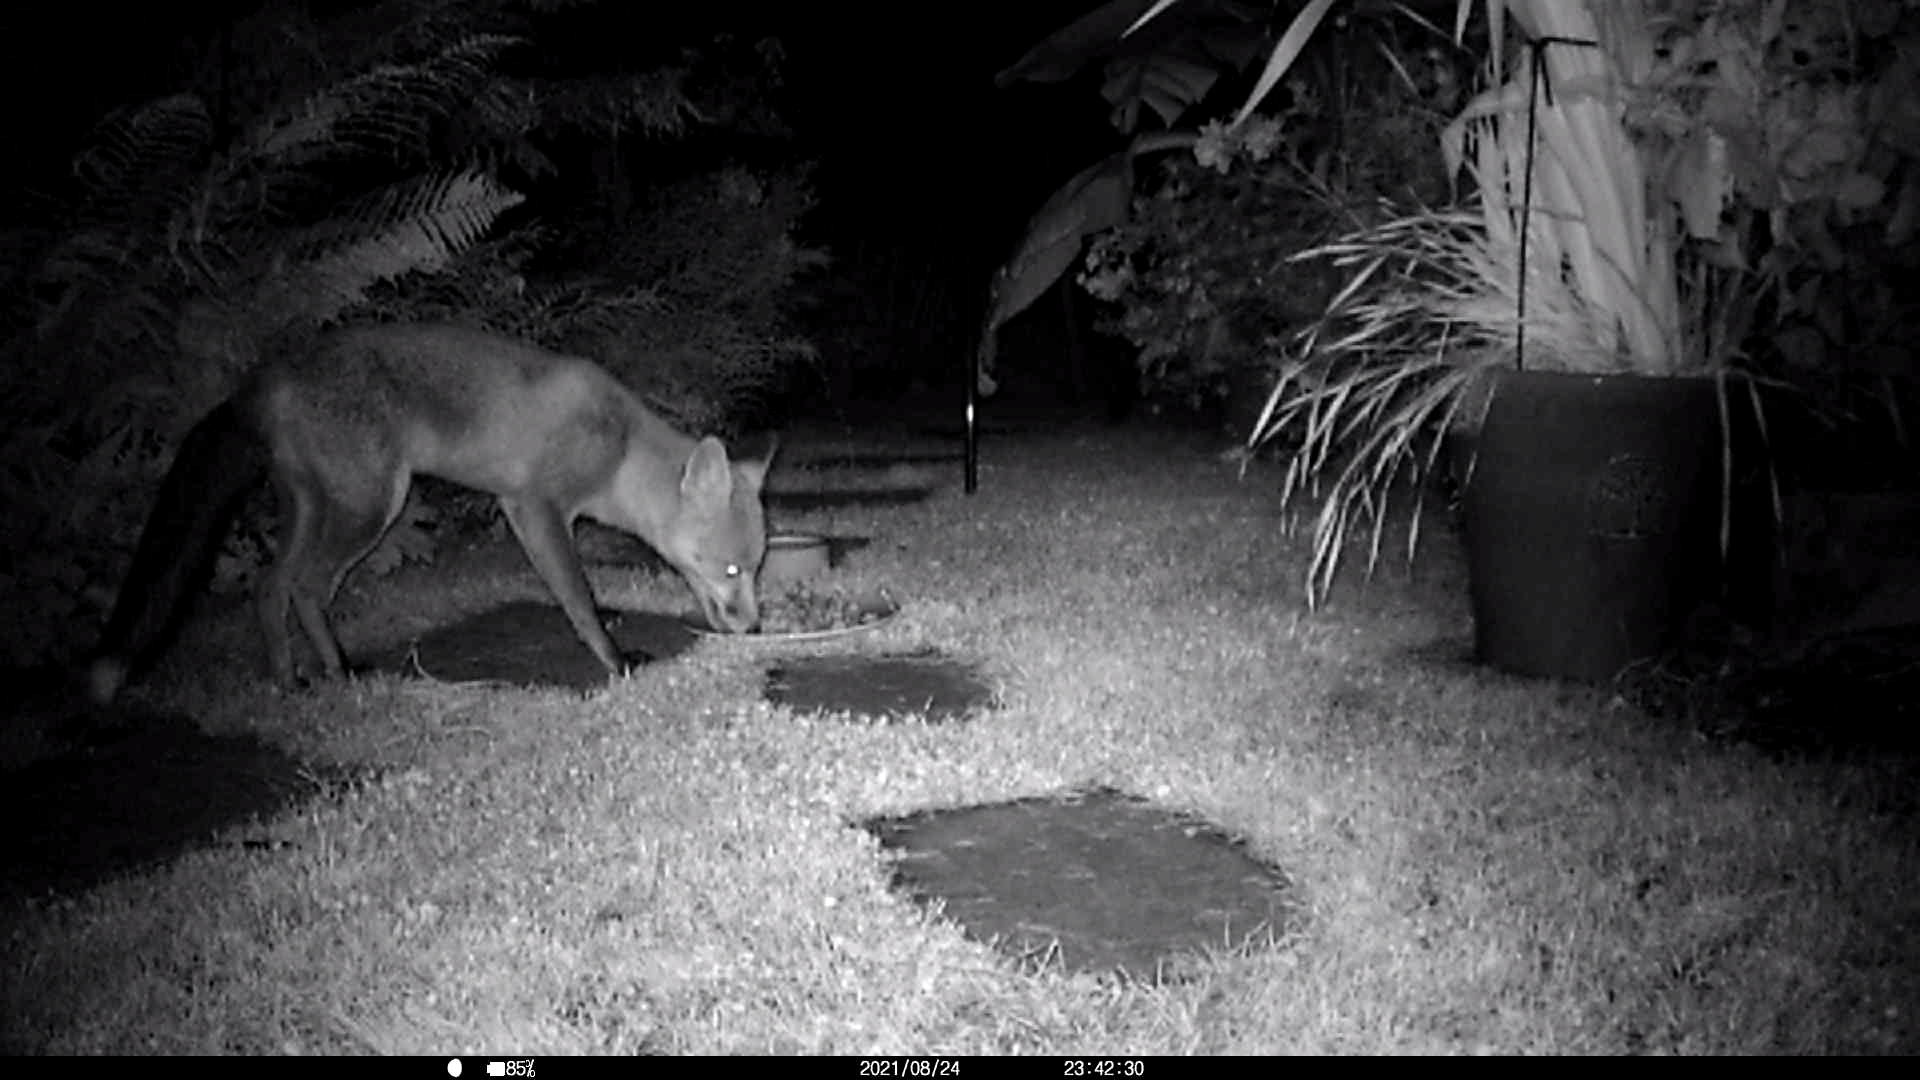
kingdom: Animalia
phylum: Chordata
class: Mammalia
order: Carnivora
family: Canidae
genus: Vulpes
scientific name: Vulpes vulpes
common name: Red fox
